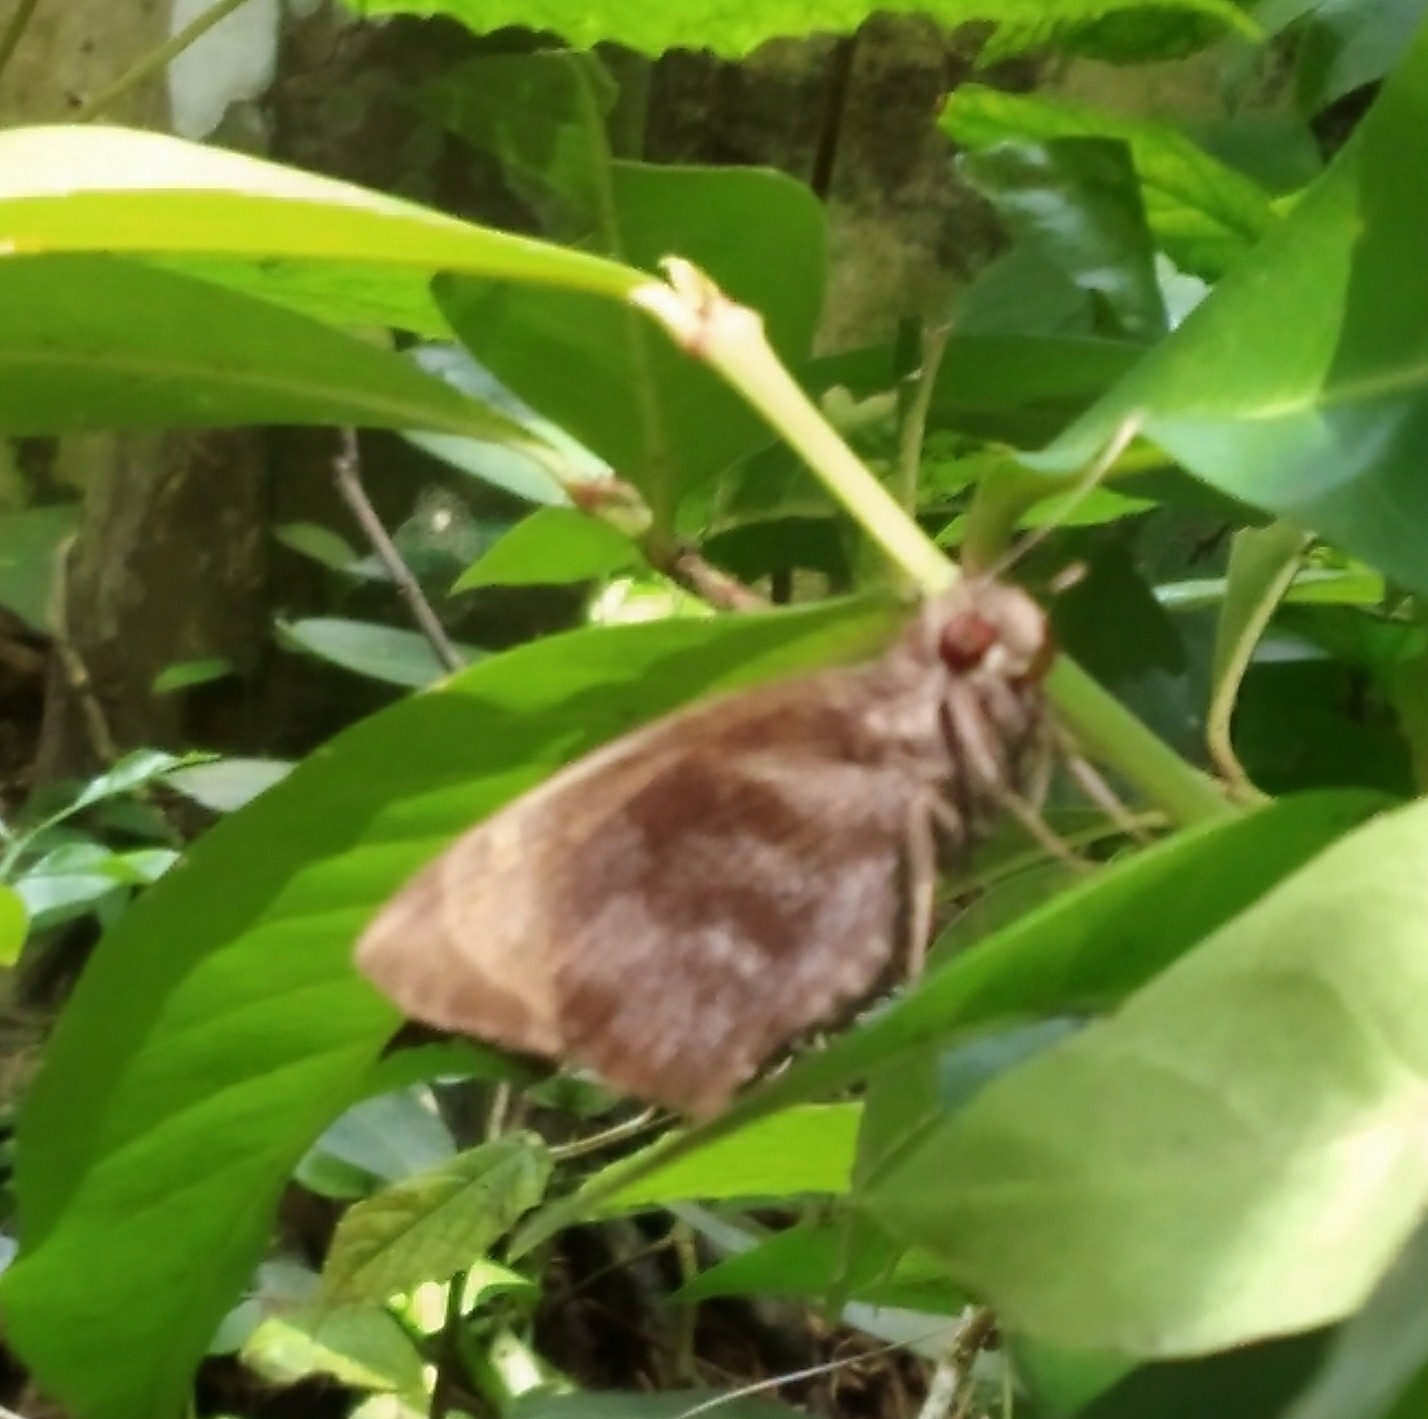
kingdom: Animalia
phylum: Arthropoda
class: Insecta
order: Lepidoptera
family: Hesperiidae
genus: Gangara
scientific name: Gangara thyrsis
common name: Giant redeye
